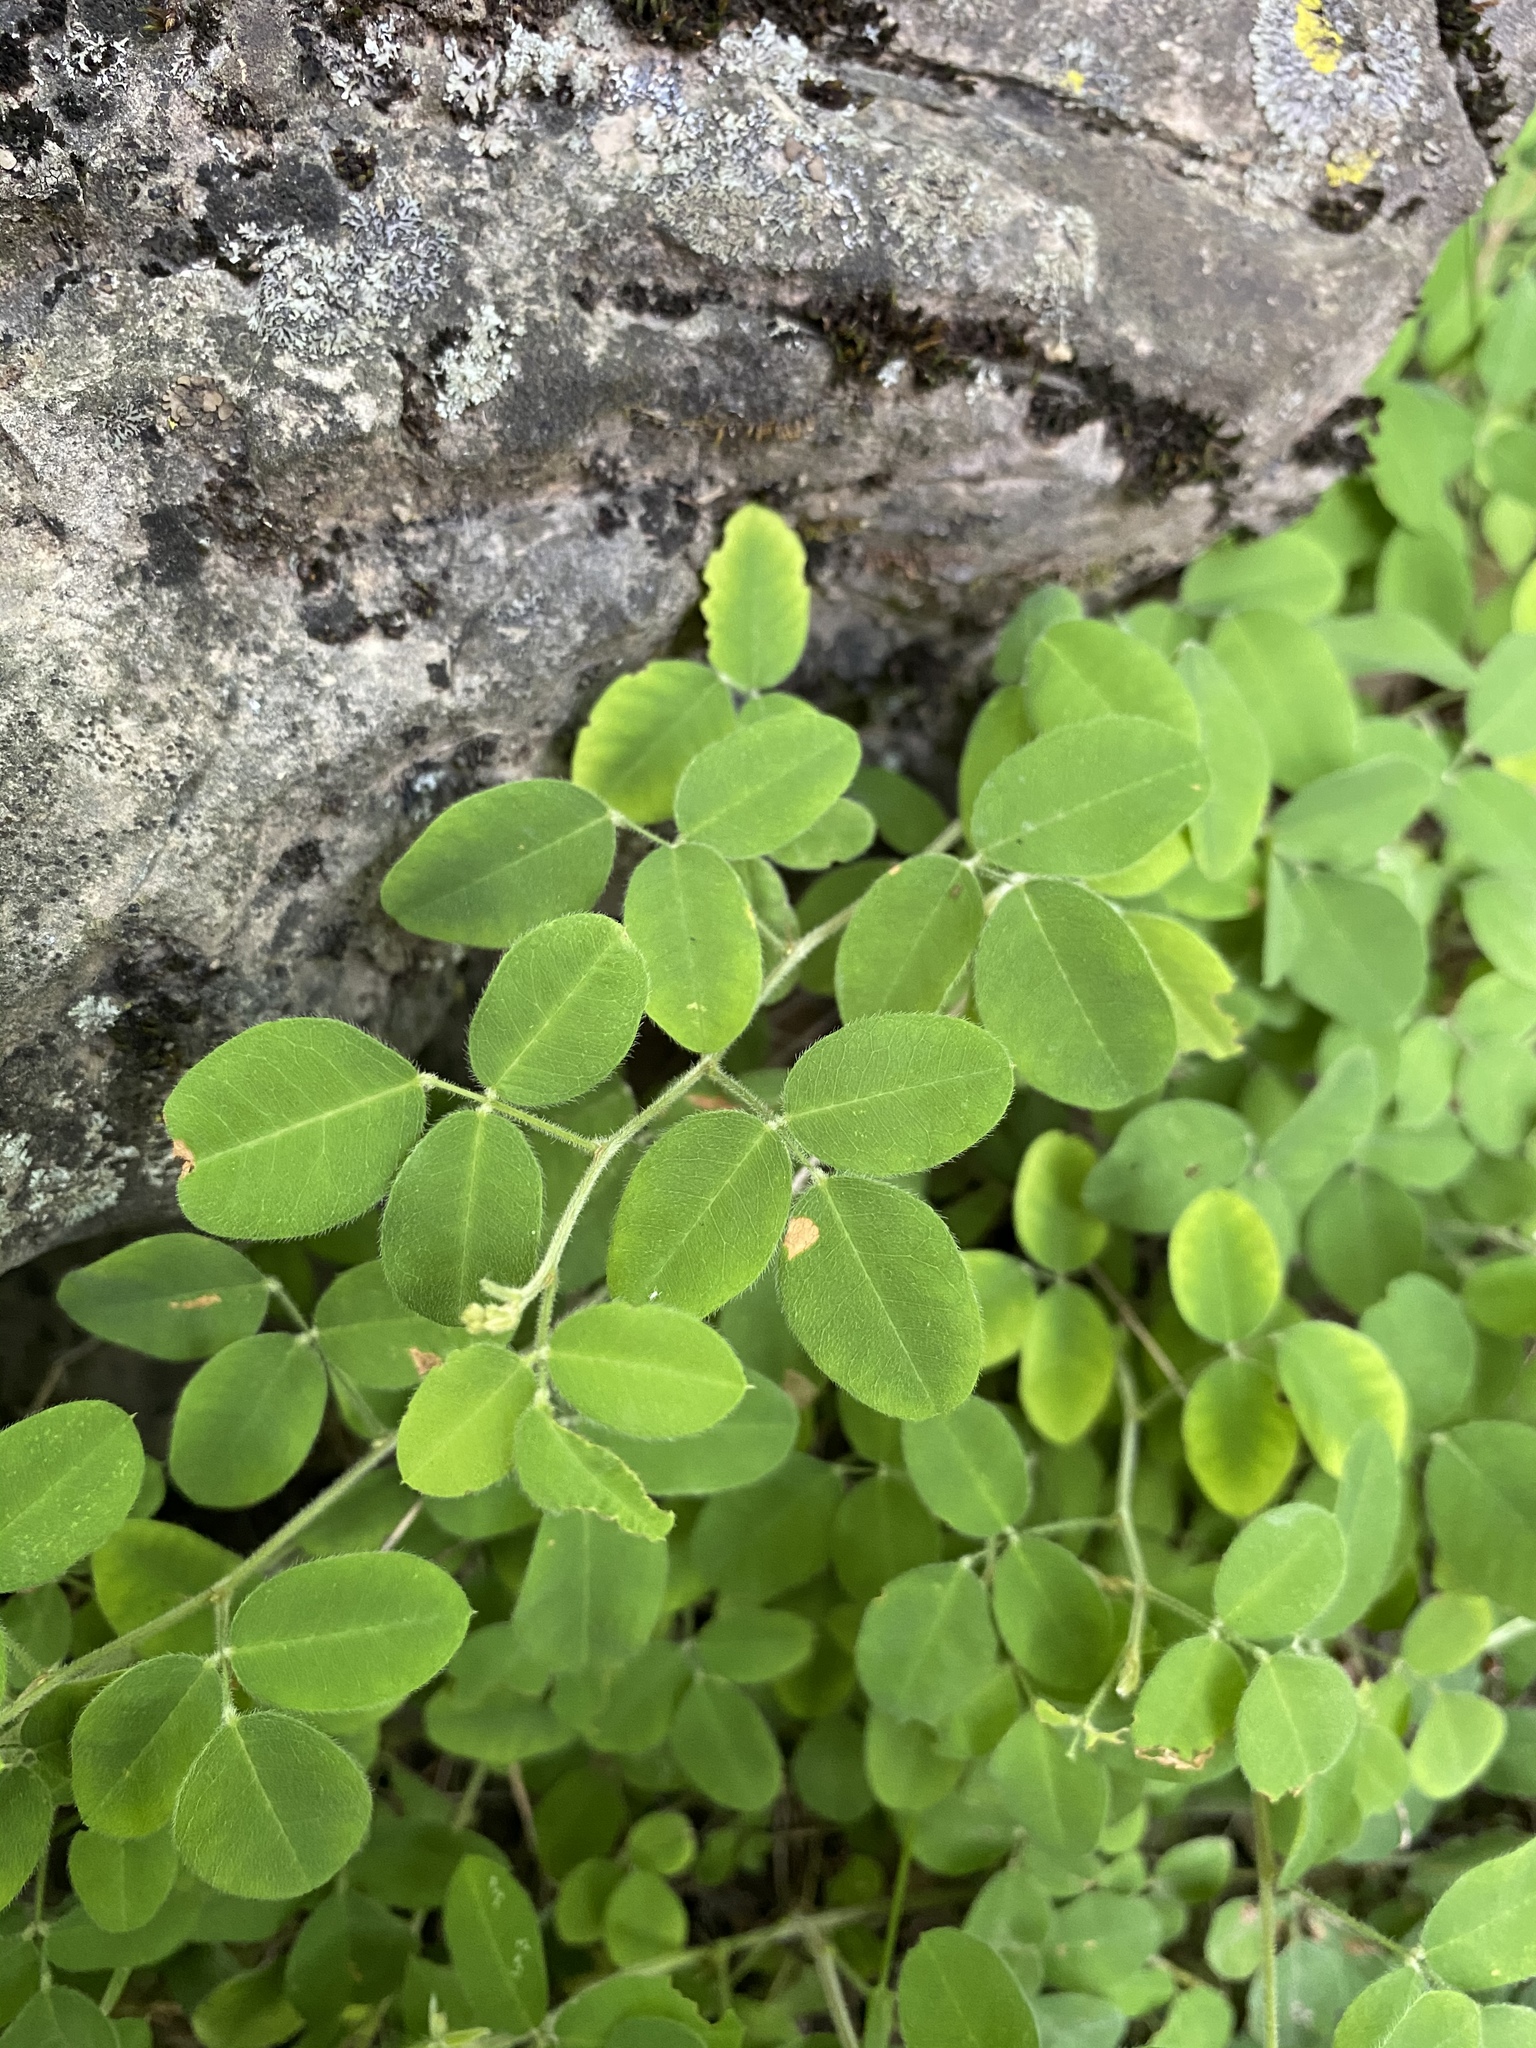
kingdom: Plantae
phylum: Tracheophyta
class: Magnoliopsida
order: Fabales
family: Fabaceae
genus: Lespedeza
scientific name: Lespedeza procumbens
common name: Downy trailing bush-clover
